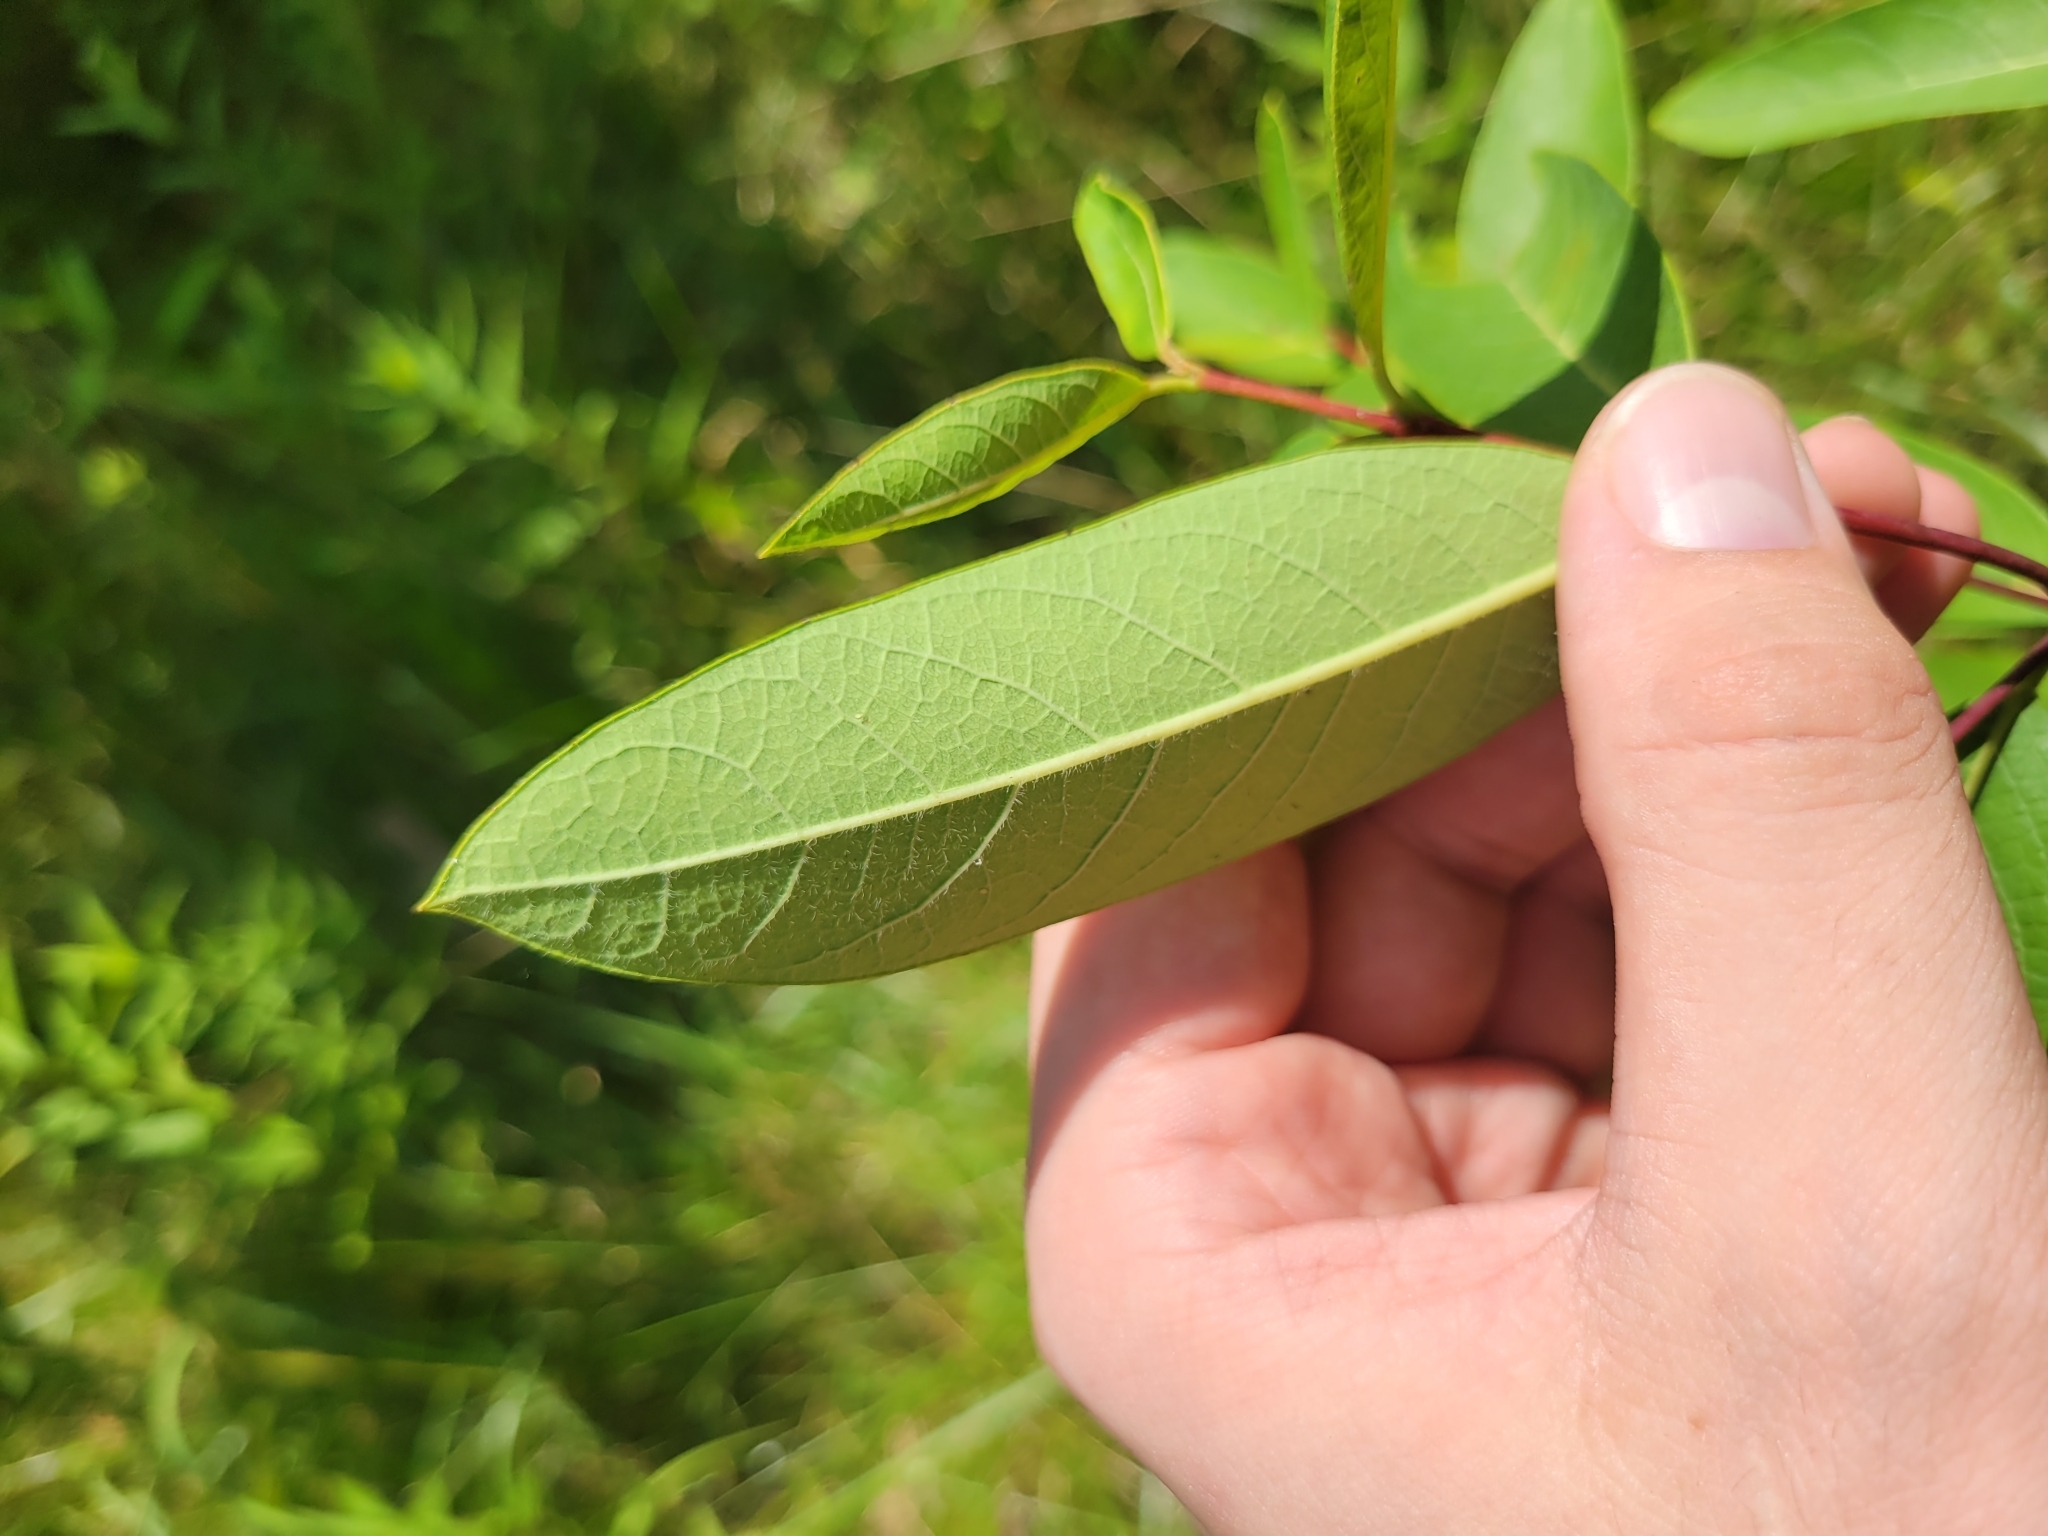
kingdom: Plantae
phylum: Tracheophyta
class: Magnoliopsida
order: Gentianales
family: Apocynaceae
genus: Apocynum
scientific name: Apocynum cannabinum
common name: Hemp dogbane
